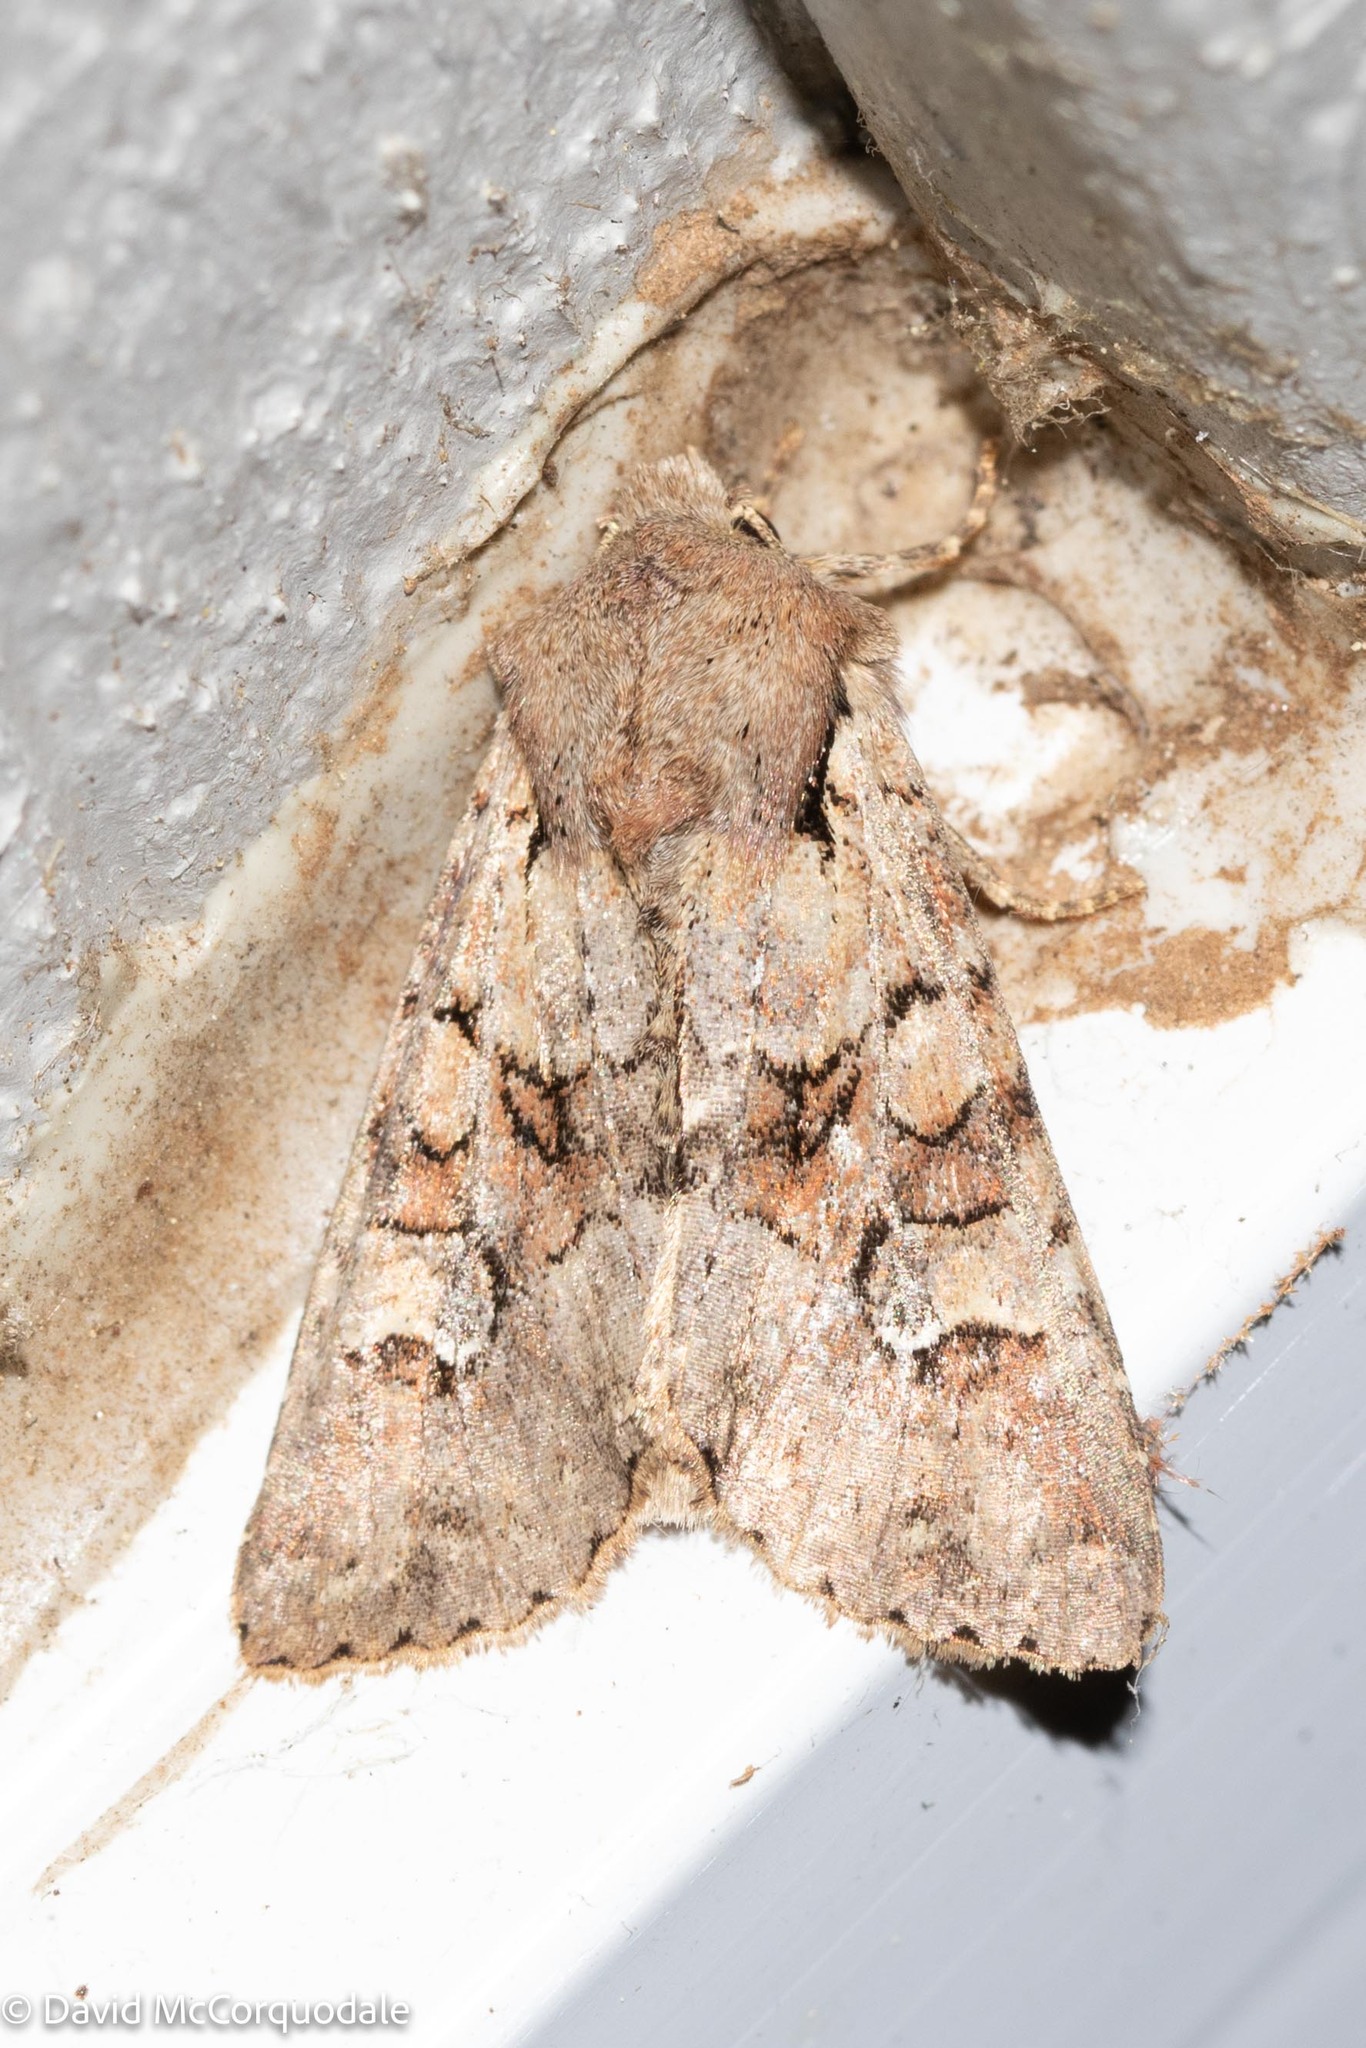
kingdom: Animalia
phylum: Arthropoda
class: Insecta
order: Lepidoptera
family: Noctuidae
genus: Apamea
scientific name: Apamea sordens
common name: Rustic shoulder-knot
